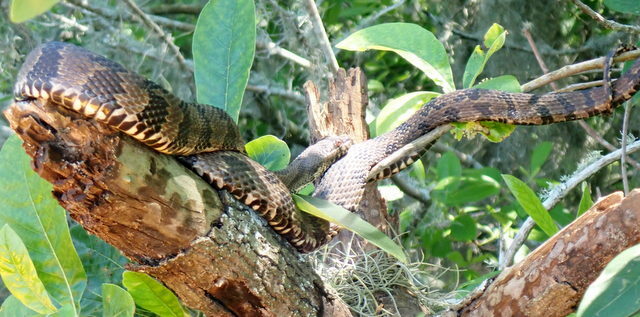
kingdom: Animalia
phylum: Chordata
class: Squamata
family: Colubridae
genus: Nerodia
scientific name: Nerodia taxispilota
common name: Brown water snake
